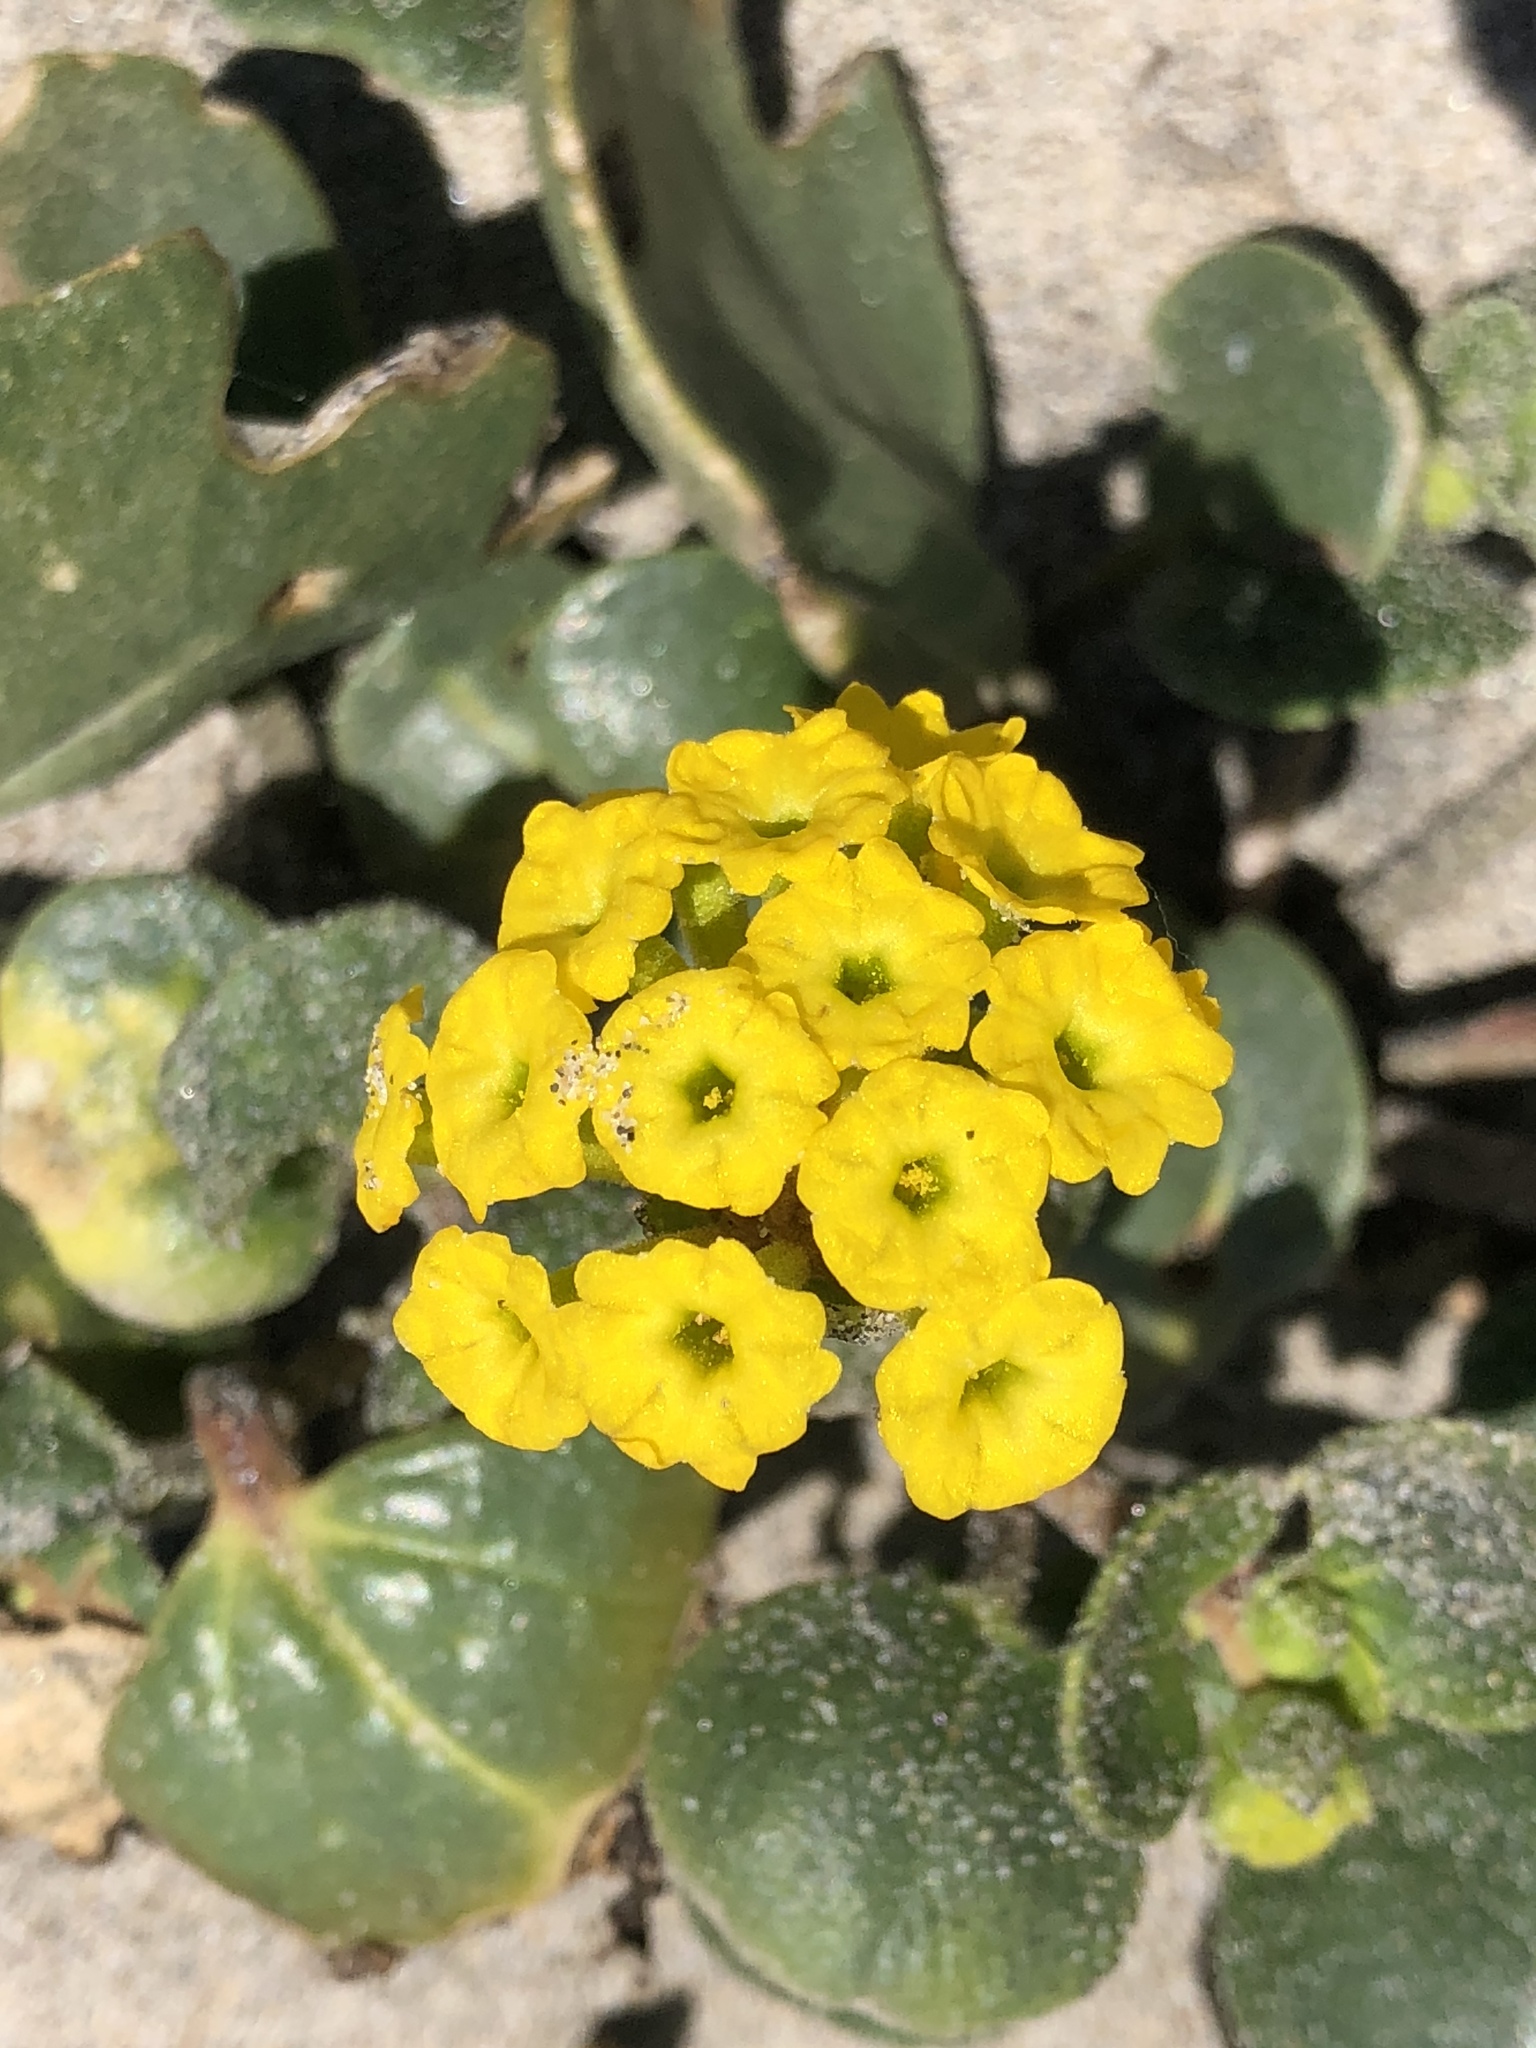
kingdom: Plantae
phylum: Tracheophyta
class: Magnoliopsida
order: Caryophyllales
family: Nyctaginaceae
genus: Abronia
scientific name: Abronia latifolia
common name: Yellow sand-verbena
